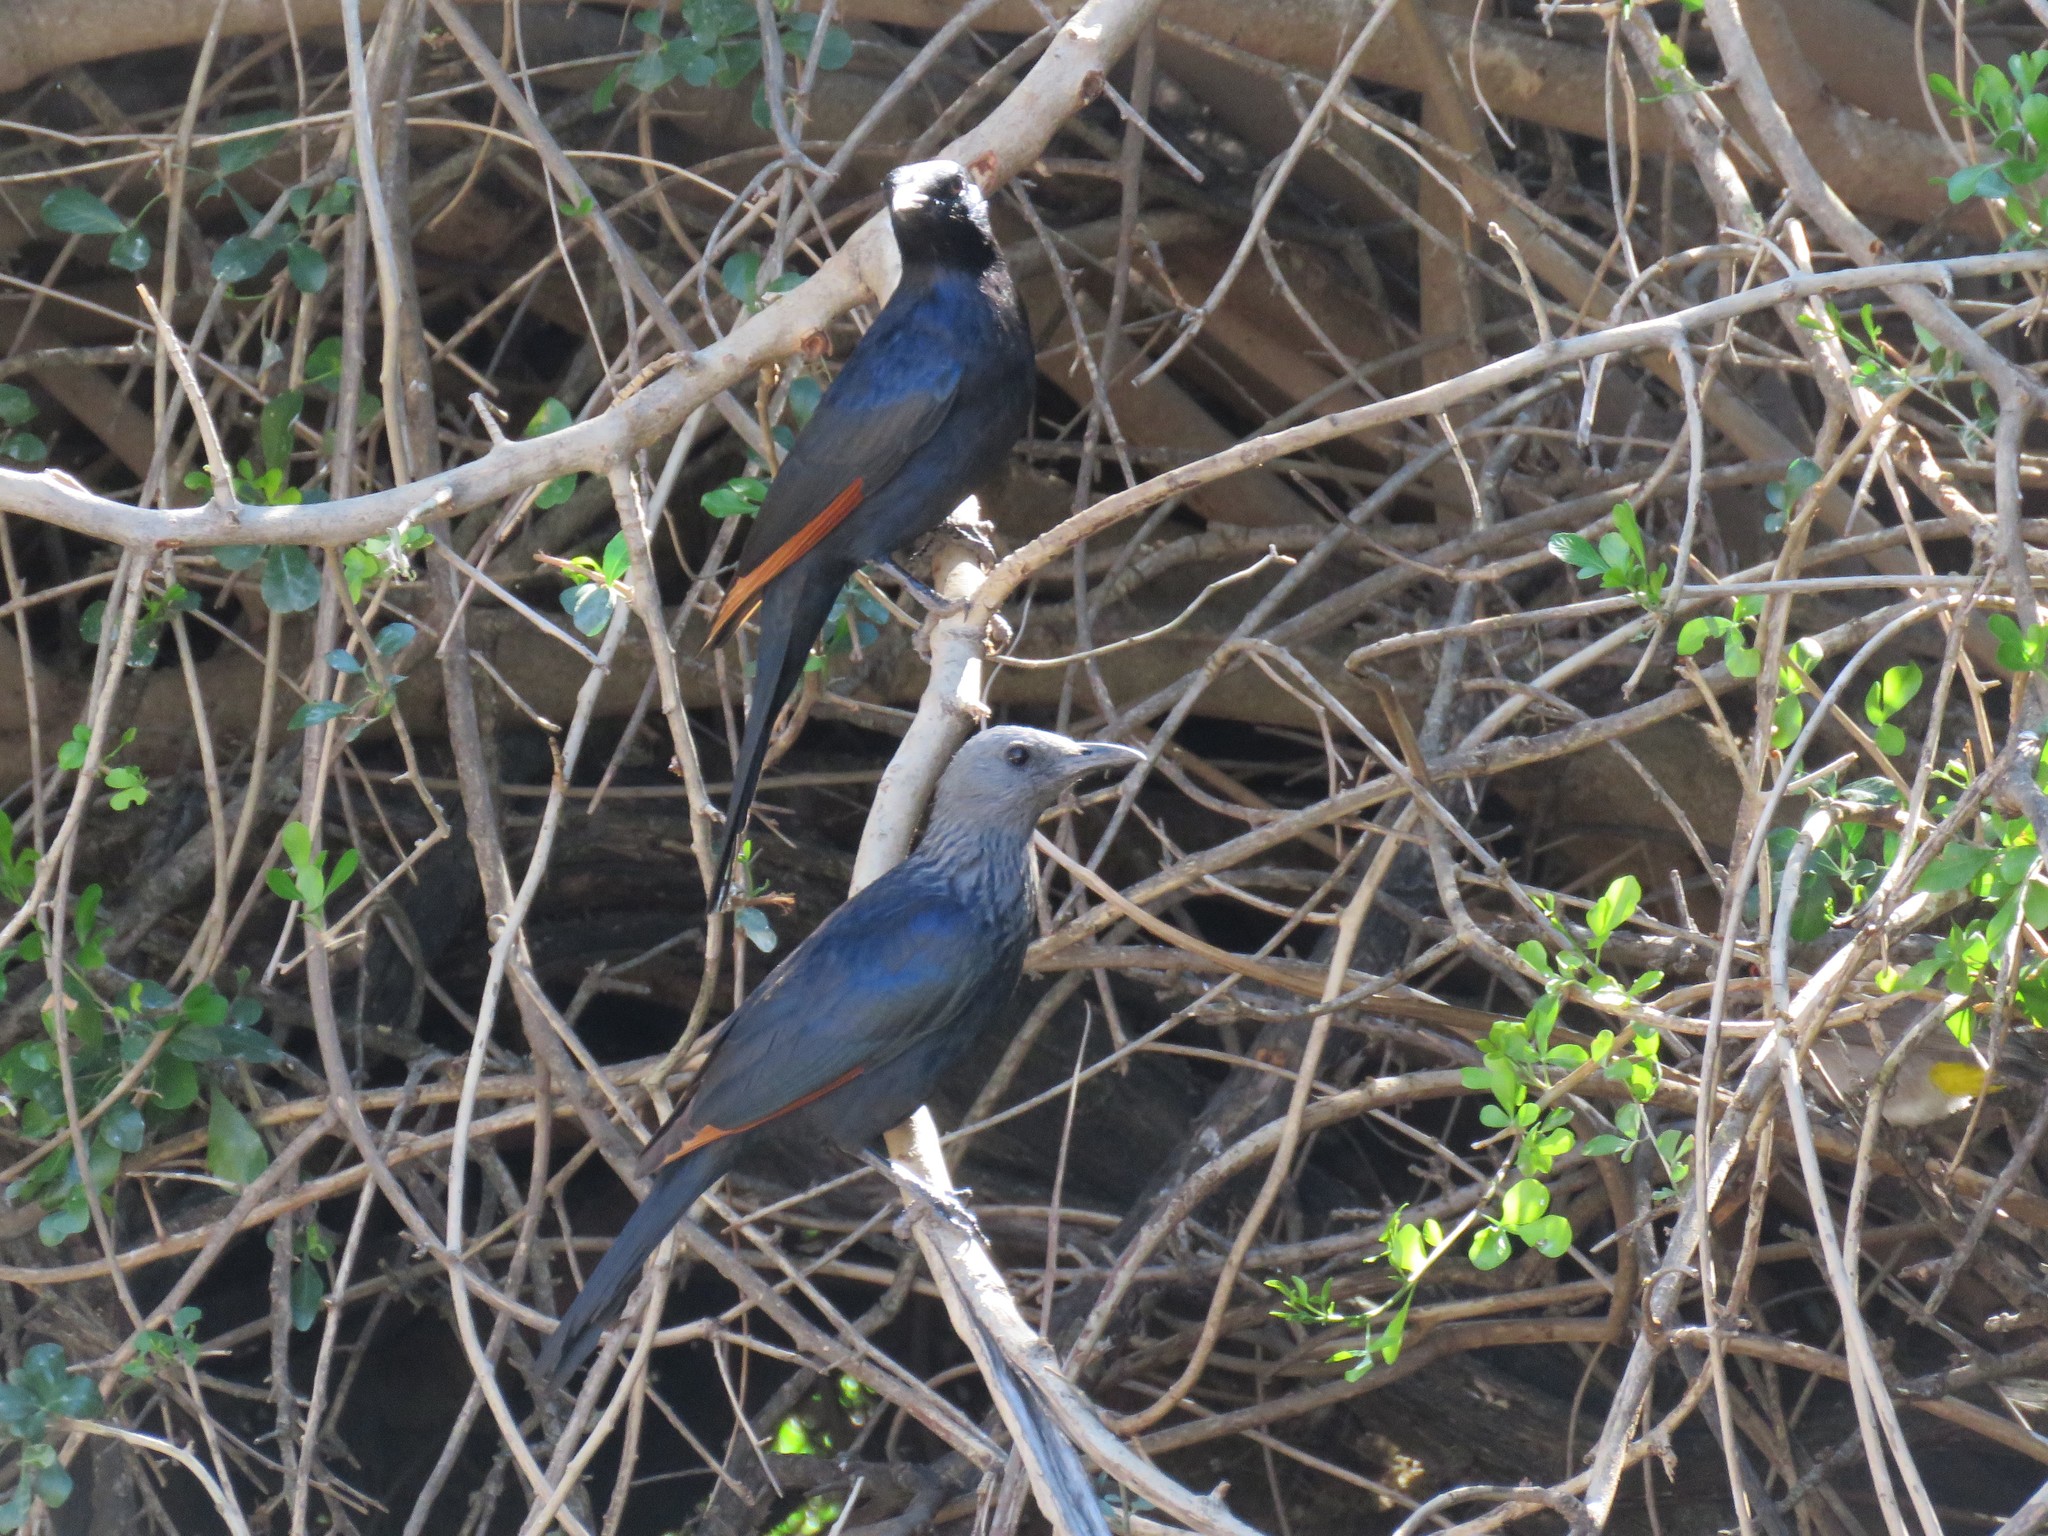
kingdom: Animalia
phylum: Chordata
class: Aves
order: Passeriformes
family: Sturnidae
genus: Onychognathus
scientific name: Onychognathus morio
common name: Red-winged starling
